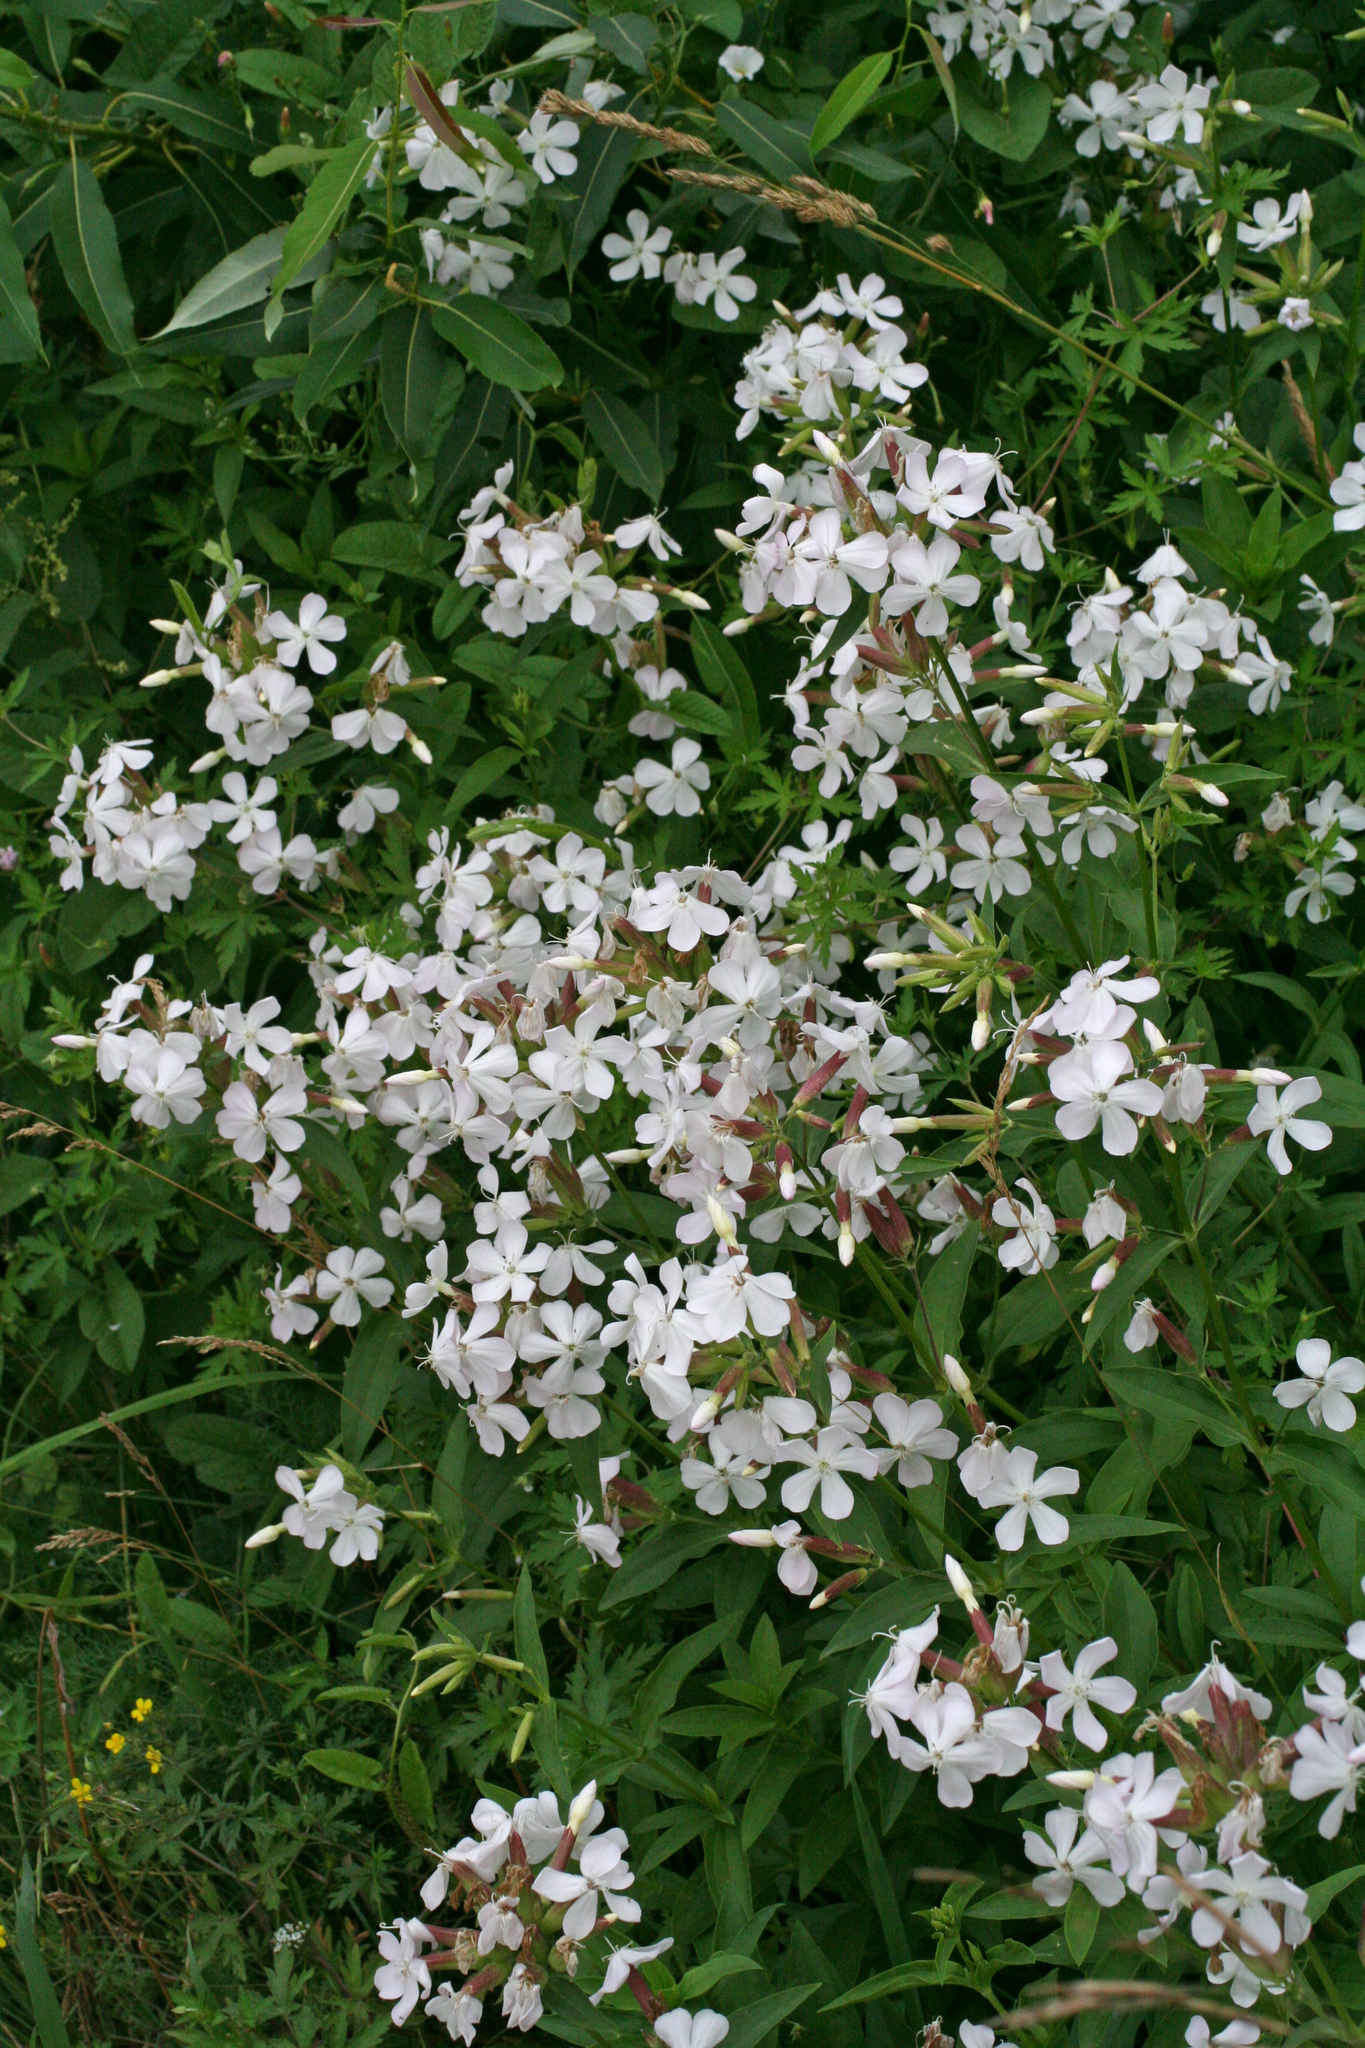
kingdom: Plantae
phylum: Tracheophyta
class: Magnoliopsida
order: Caryophyllales
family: Caryophyllaceae
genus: Saponaria
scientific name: Saponaria officinalis
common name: Soapwort
